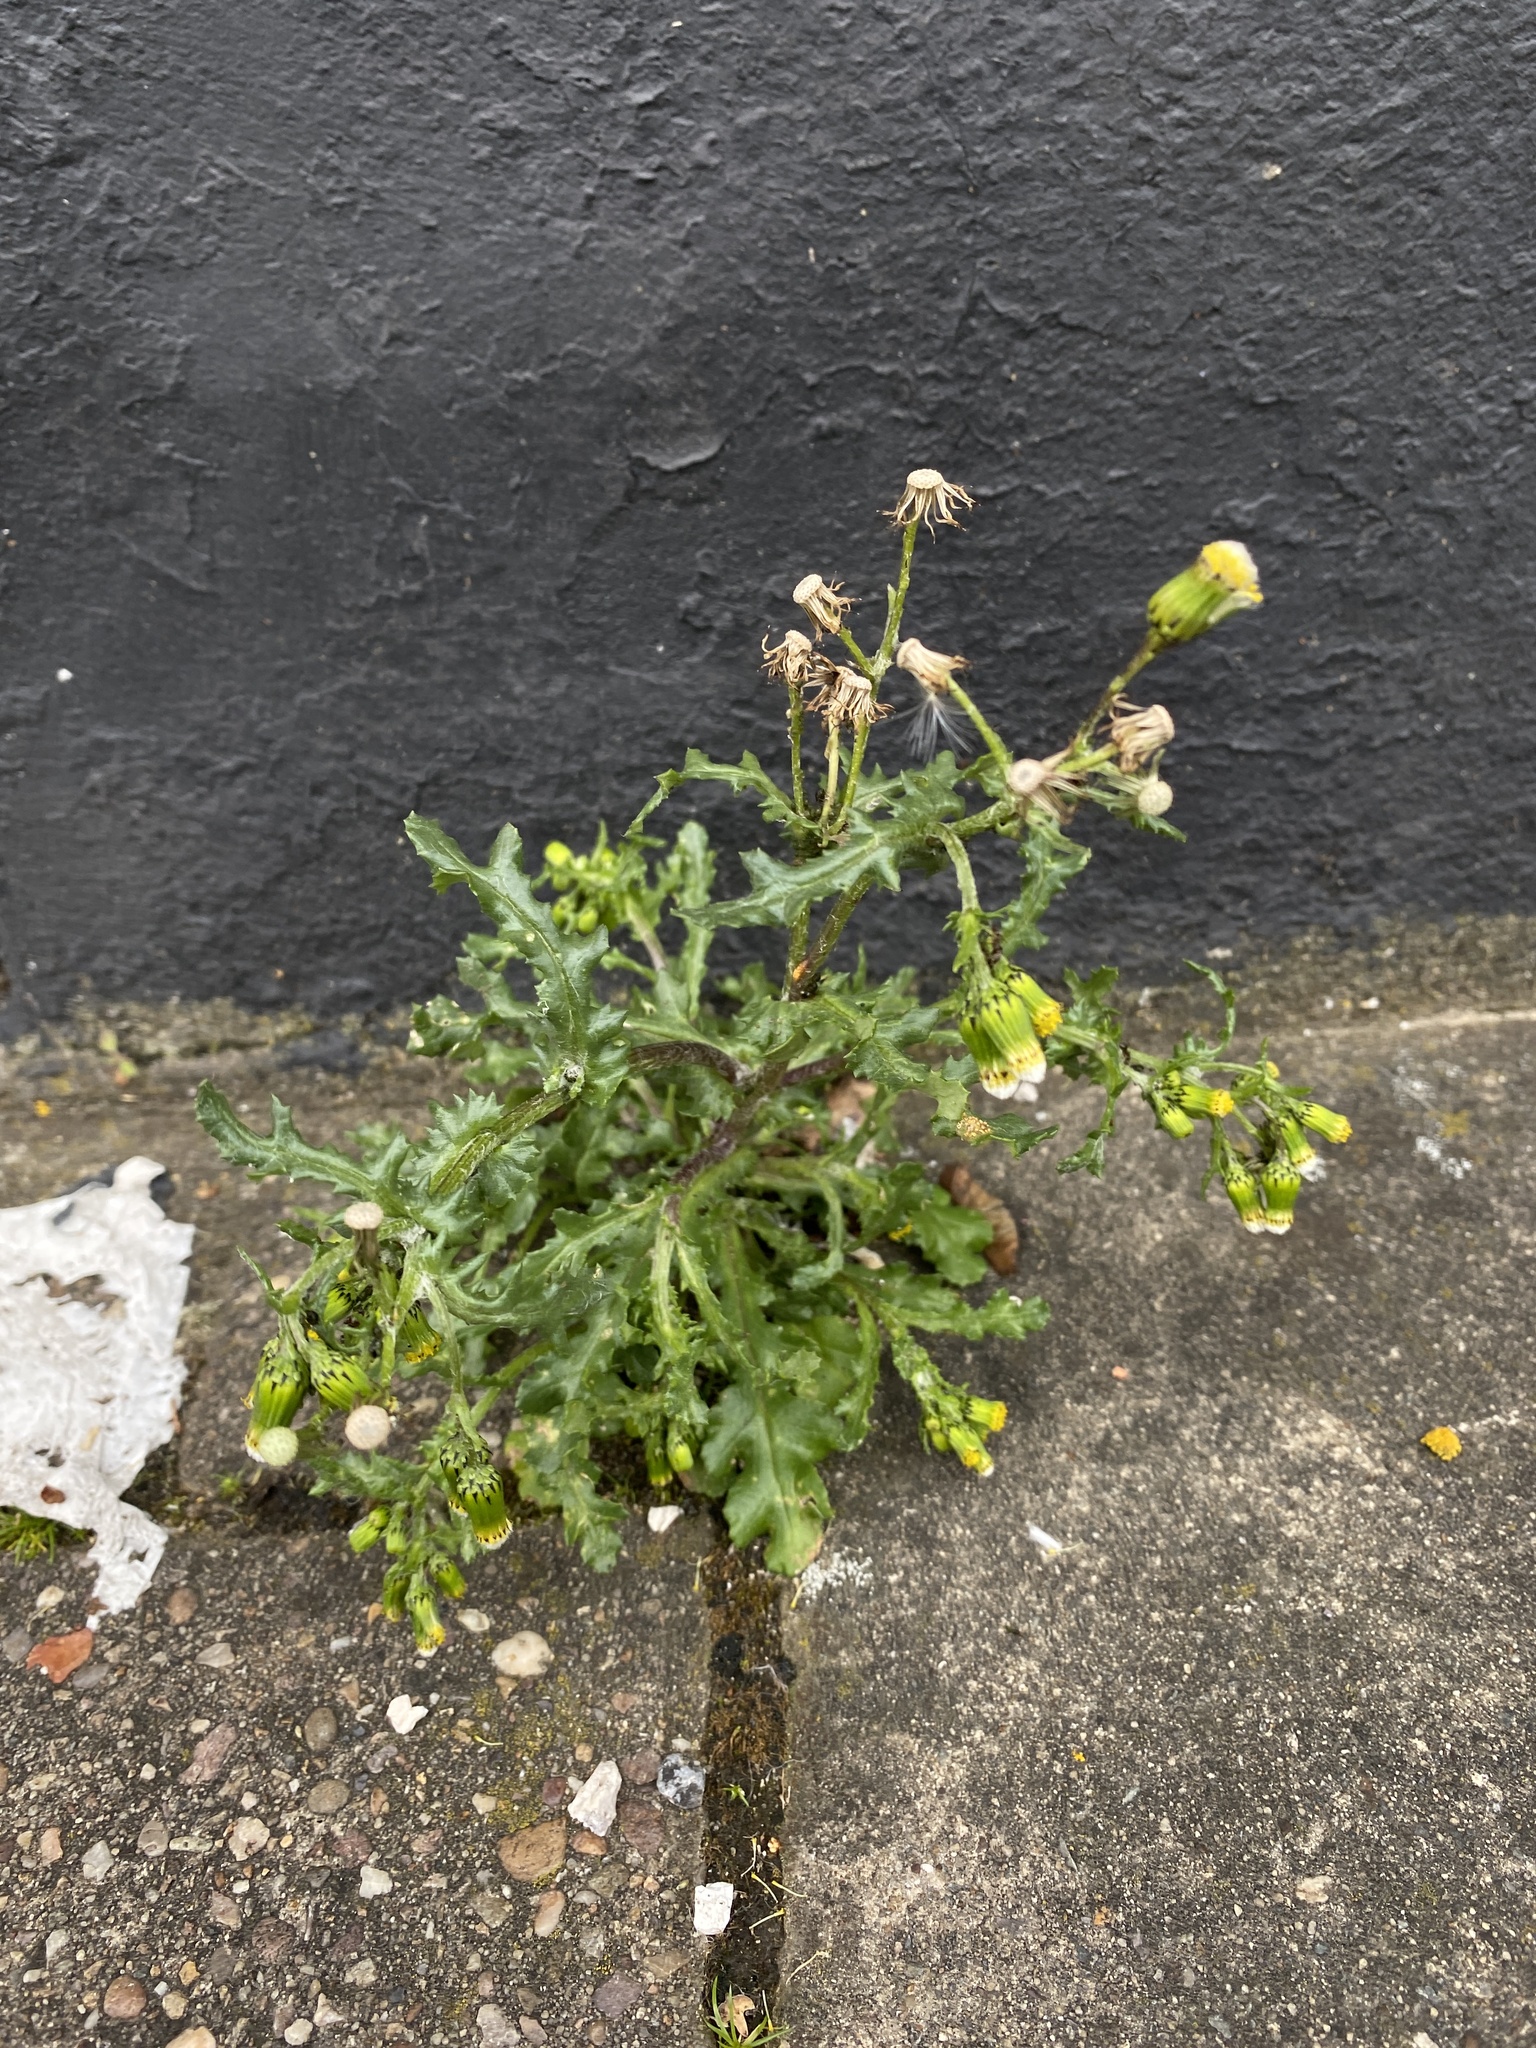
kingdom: Plantae
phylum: Tracheophyta
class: Magnoliopsida
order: Asterales
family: Asteraceae
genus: Senecio
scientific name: Senecio vulgaris
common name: Old-man-in-the-spring
